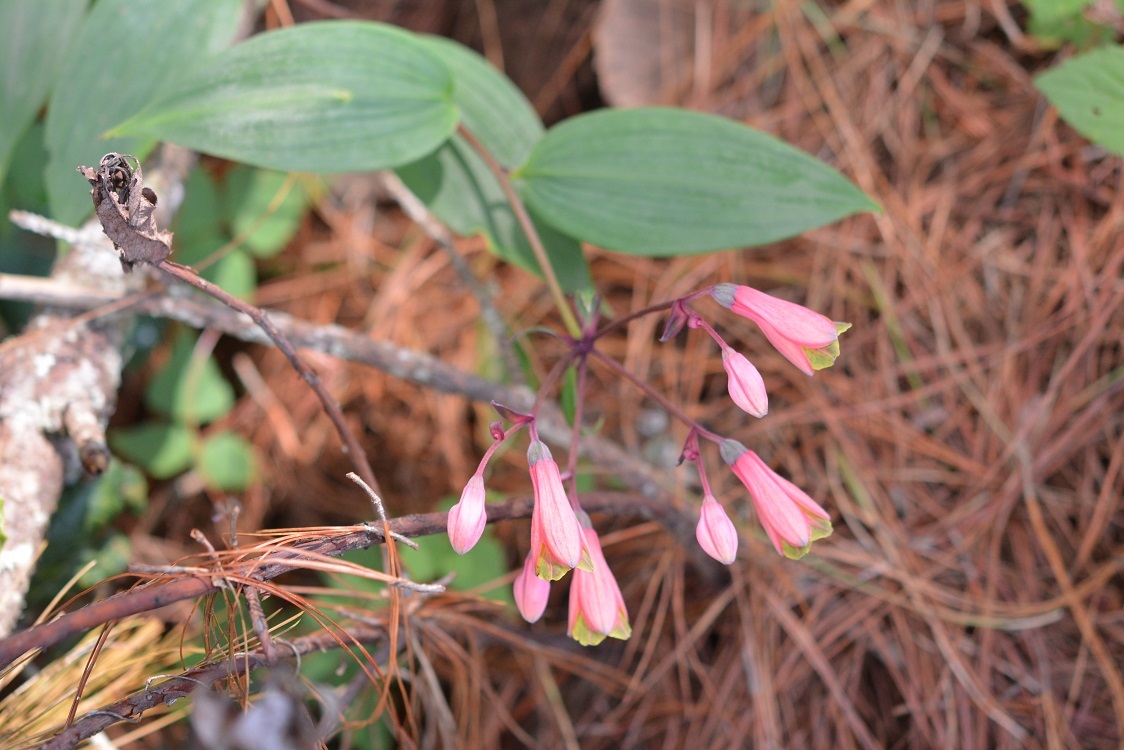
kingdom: Plantae
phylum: Tracheophyta
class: Liliopsida
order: Liliales
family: Alstroemeriaceae
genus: Bomarea
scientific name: Bomarea edulis
